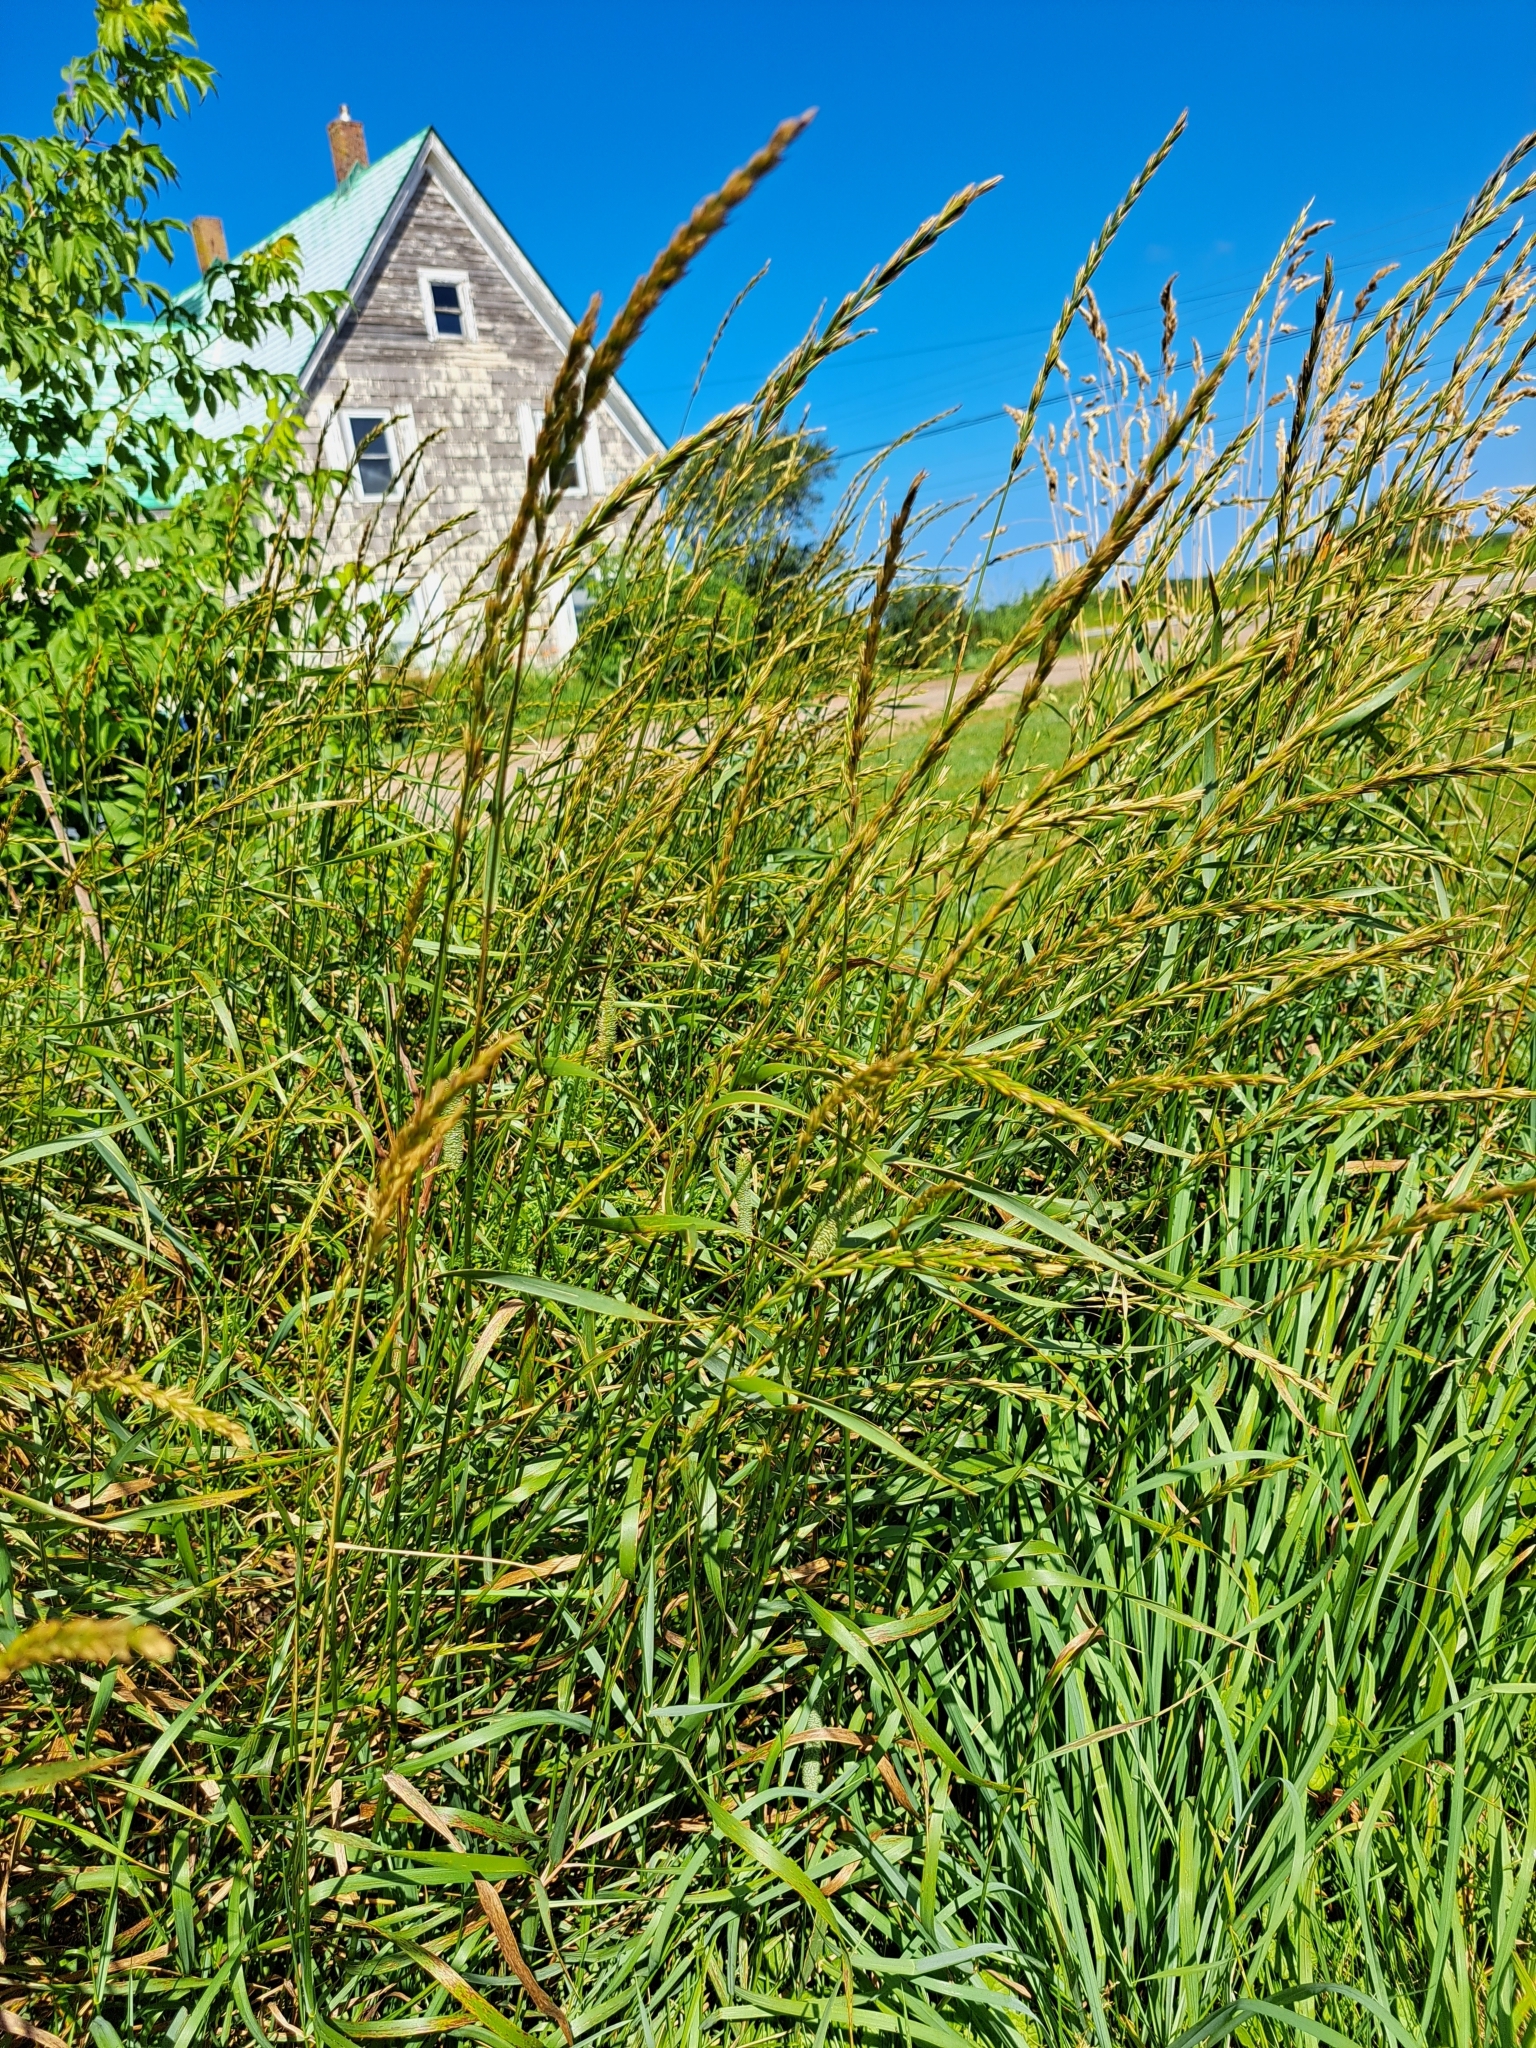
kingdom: Plantae
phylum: Tracheophyta
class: Liliopsida
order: Poales
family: Poaceae
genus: Elymus
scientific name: Elymus repens
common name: Quackgrass
